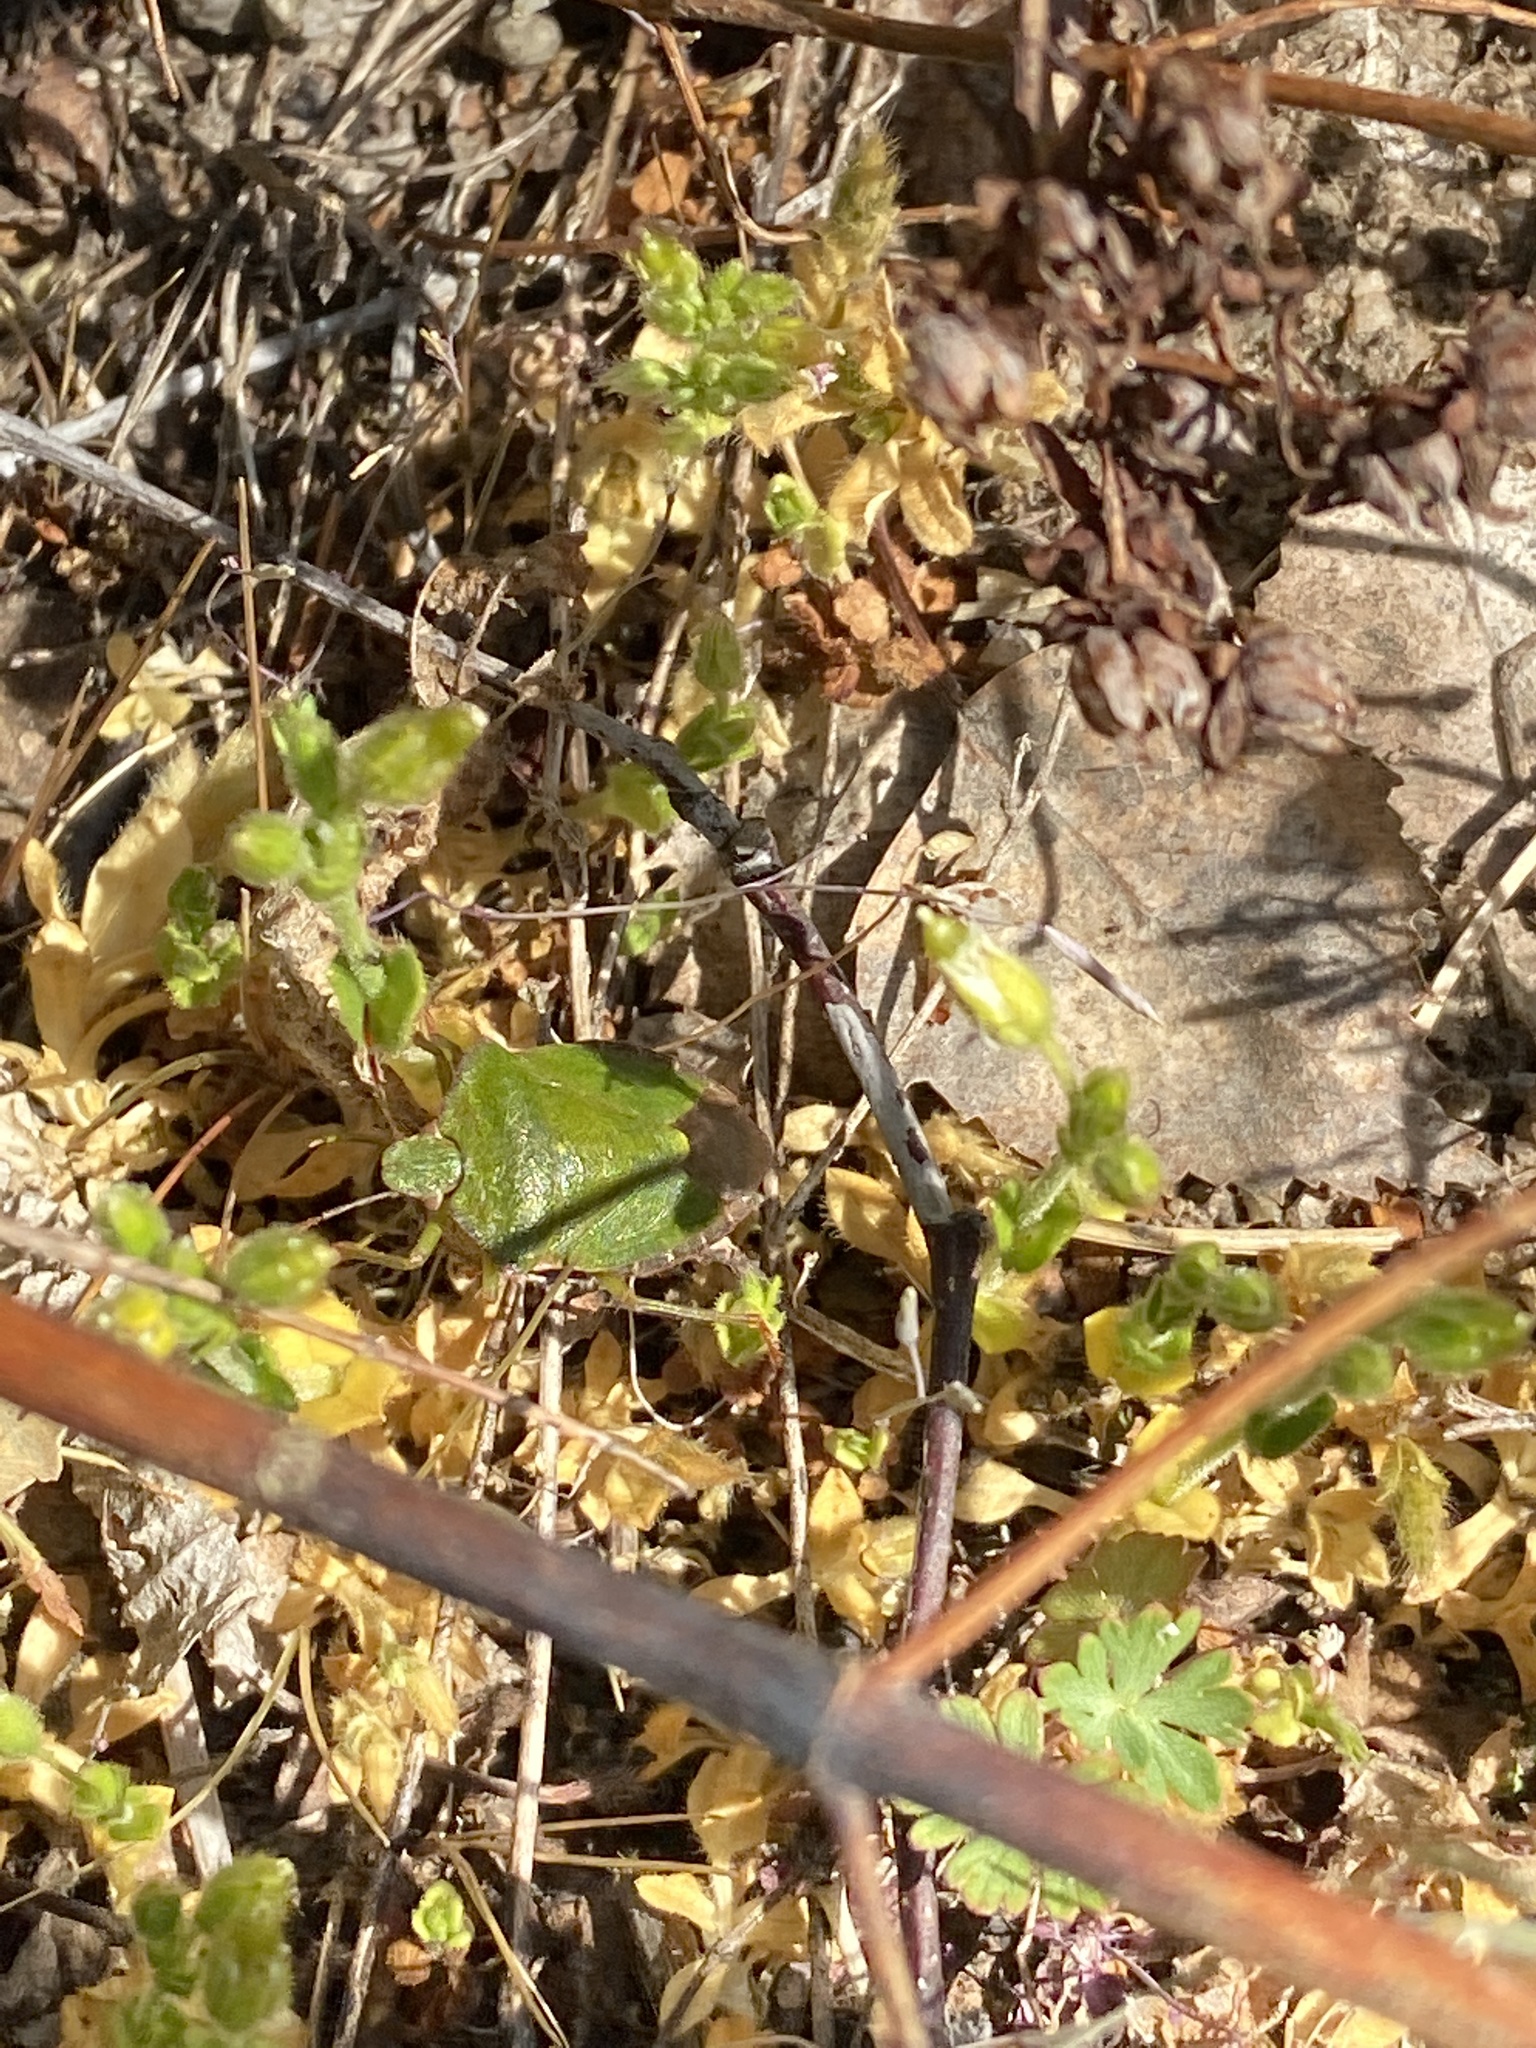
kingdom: Animalia
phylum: Arthropoda
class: Insecta
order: Hemiptera
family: Pentatomidae
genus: Palomena
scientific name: Palomena prasina
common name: Green shieldbug
